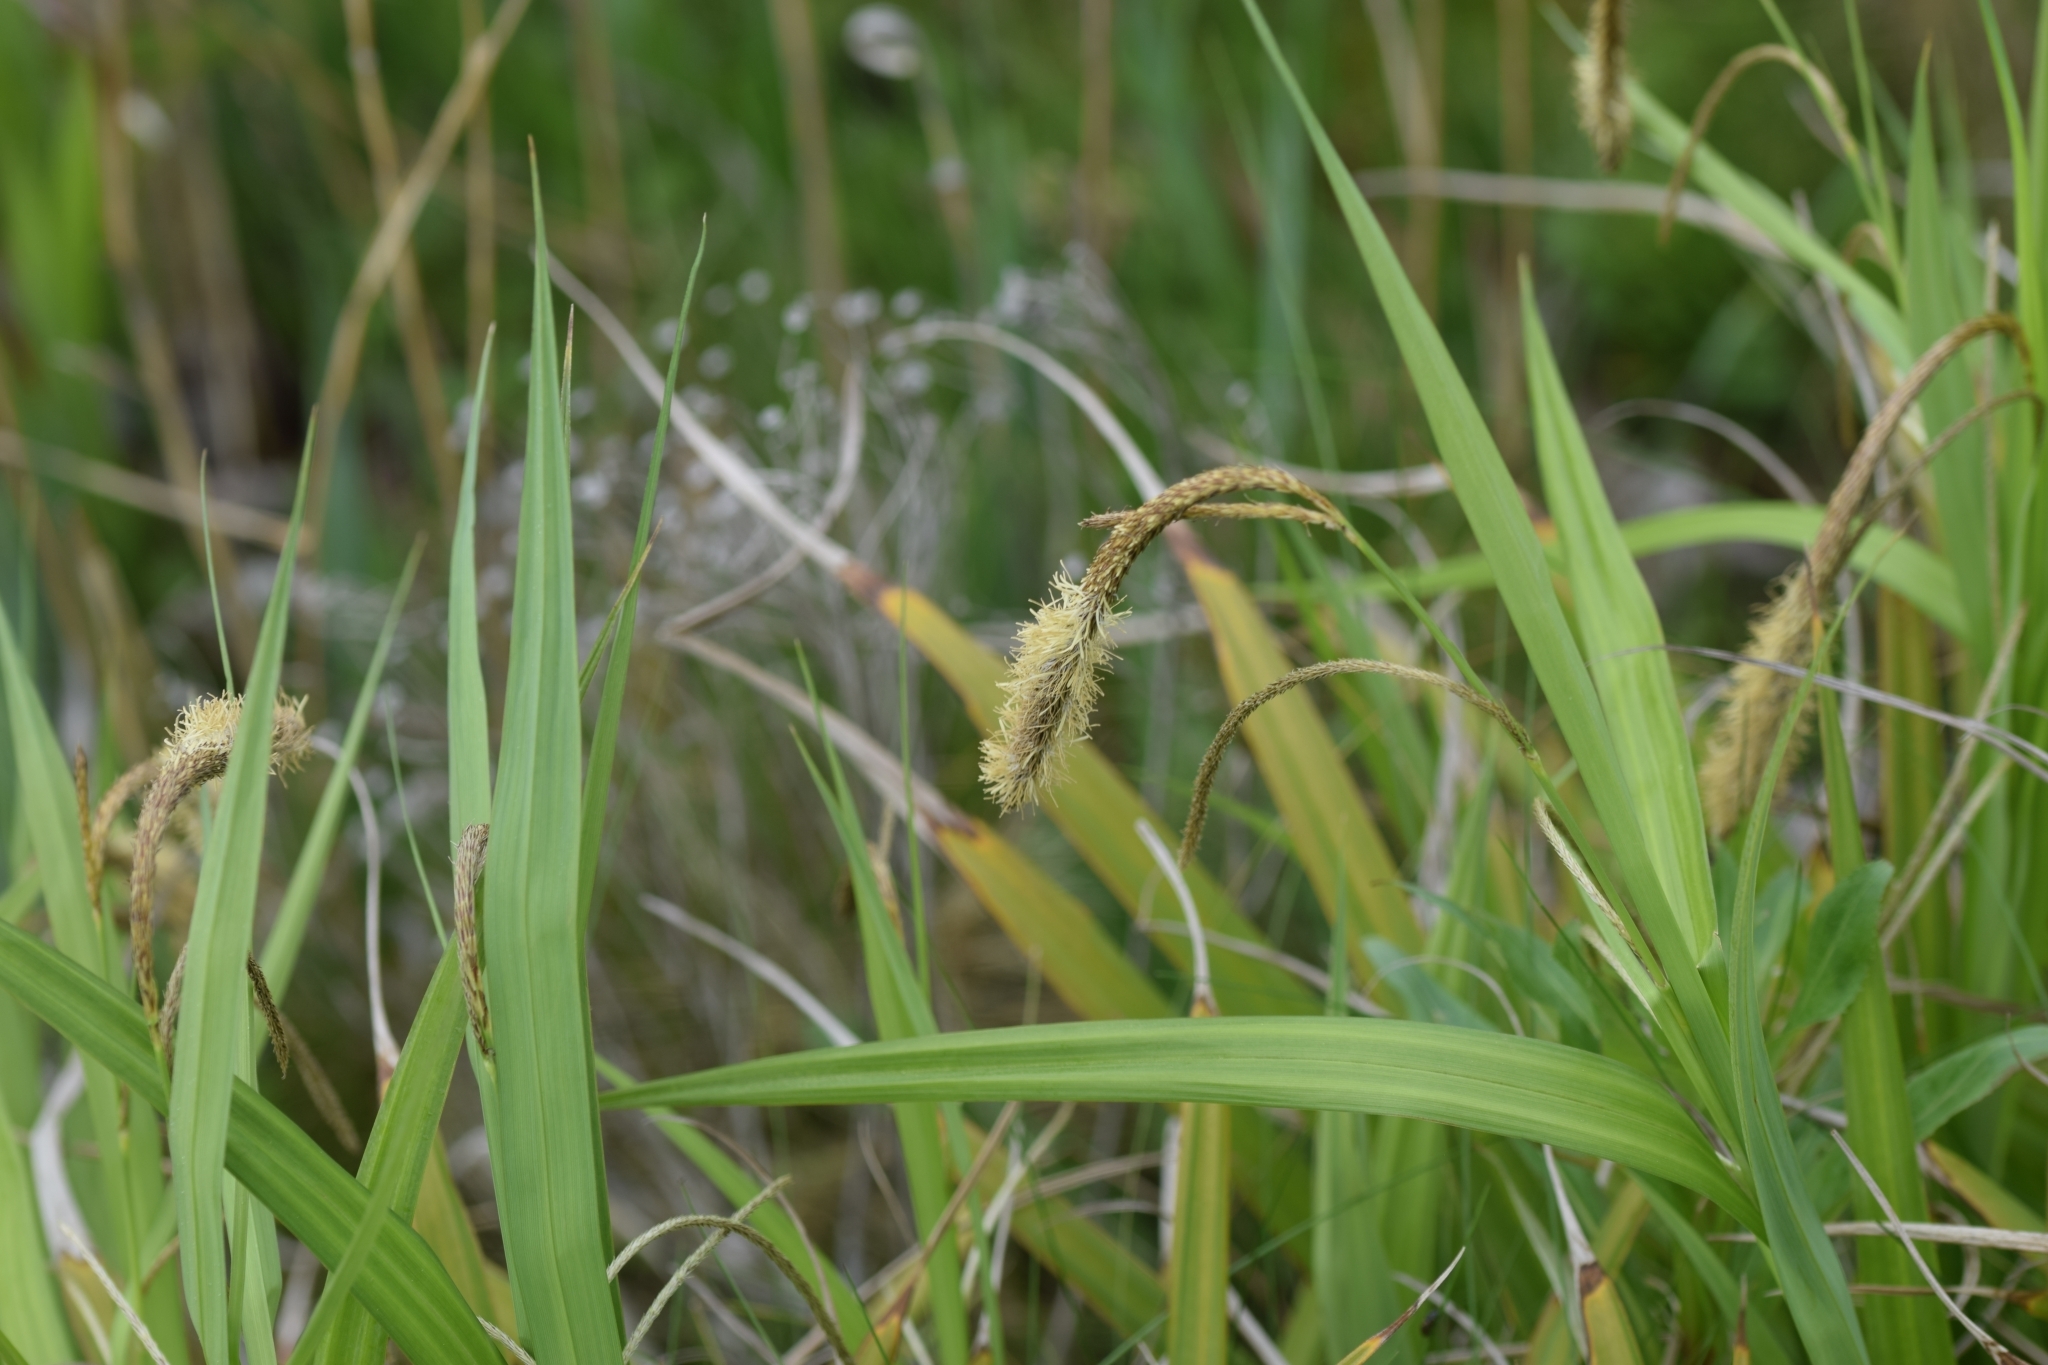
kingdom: Plantae
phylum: Tracheophyta
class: Liliopsida
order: Poales
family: Cyperaceae
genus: Carex
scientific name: Carex pendula
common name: Pendulous sedge
